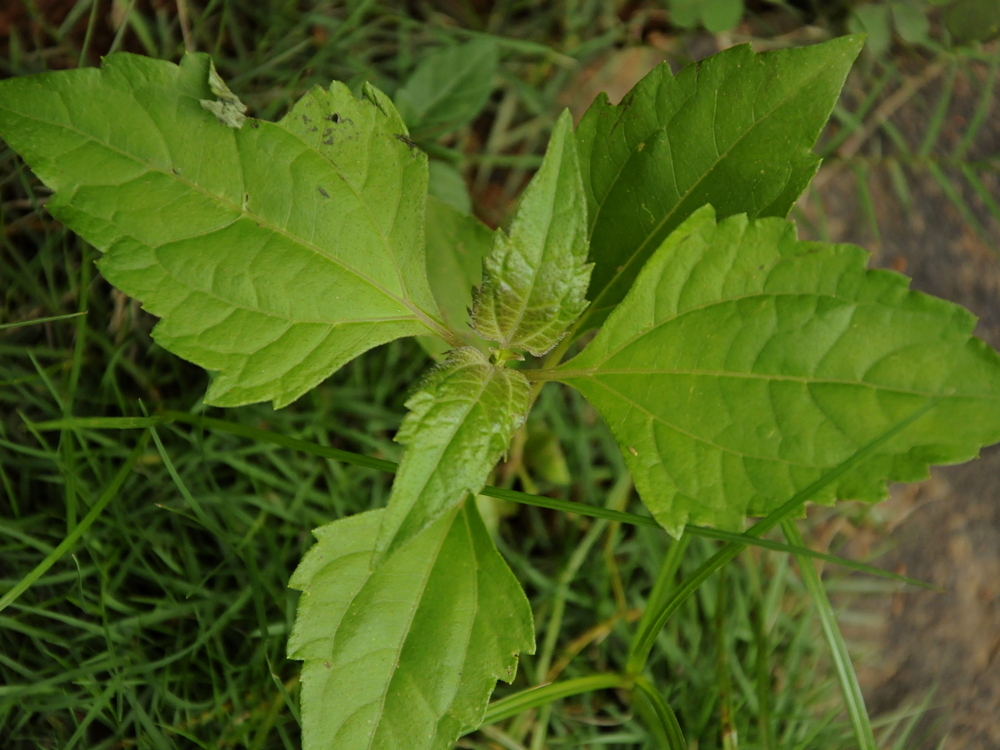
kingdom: Plantae
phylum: Tracheophyta
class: Magnoliopsida
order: Asterales
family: Asteraceae
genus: Chromolaena
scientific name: Chromolaena odorata
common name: Siamweed
